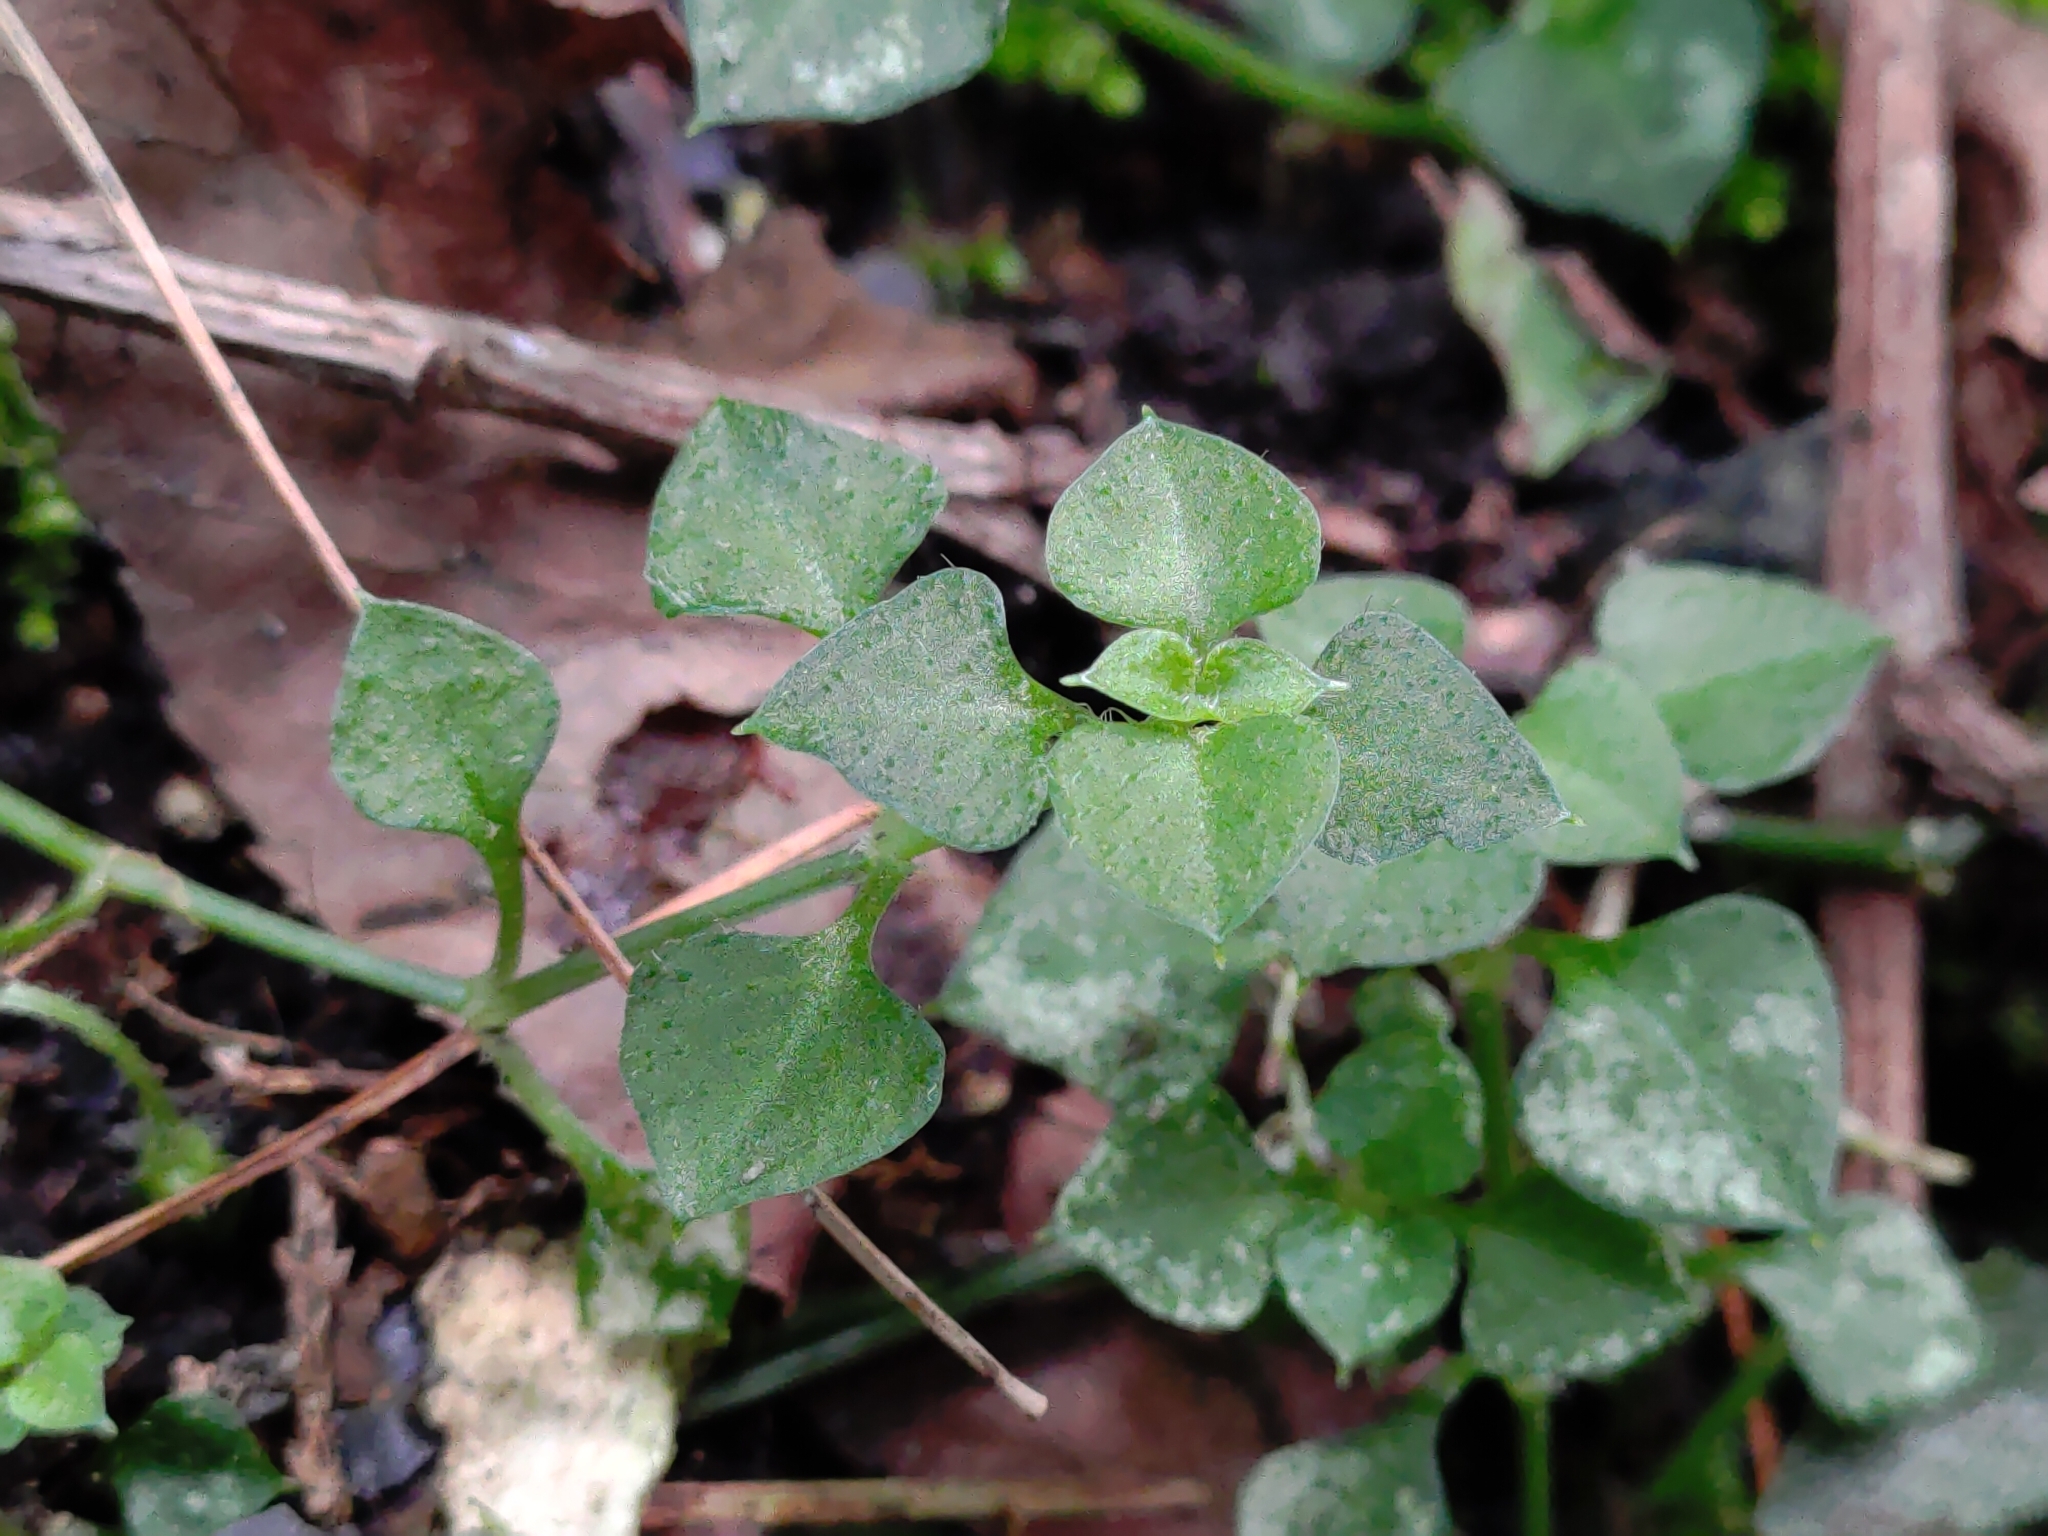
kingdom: Plantae
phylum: Tracheophyta
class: Magnoliopsida
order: Caryophyllales
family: Caryophyllaceae
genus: Nubelaria
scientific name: Nubelaria arisanensis
